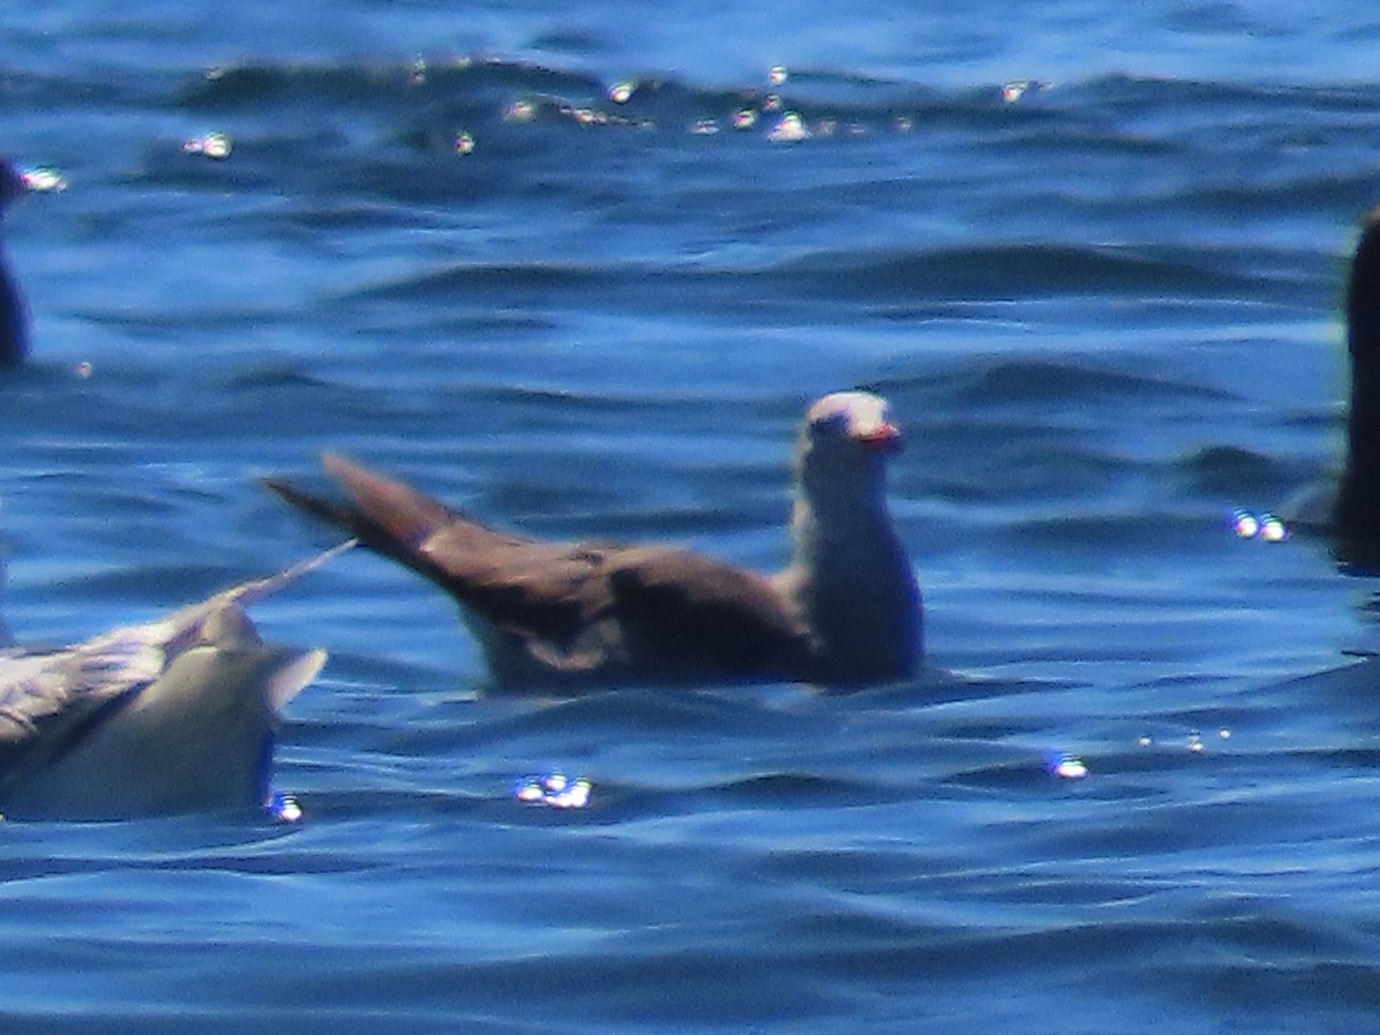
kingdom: Animalia
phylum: Chordata
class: Aves
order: Charadriiformes
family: Laridae
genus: Larus
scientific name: Larus heermanni
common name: Heermann's gull
